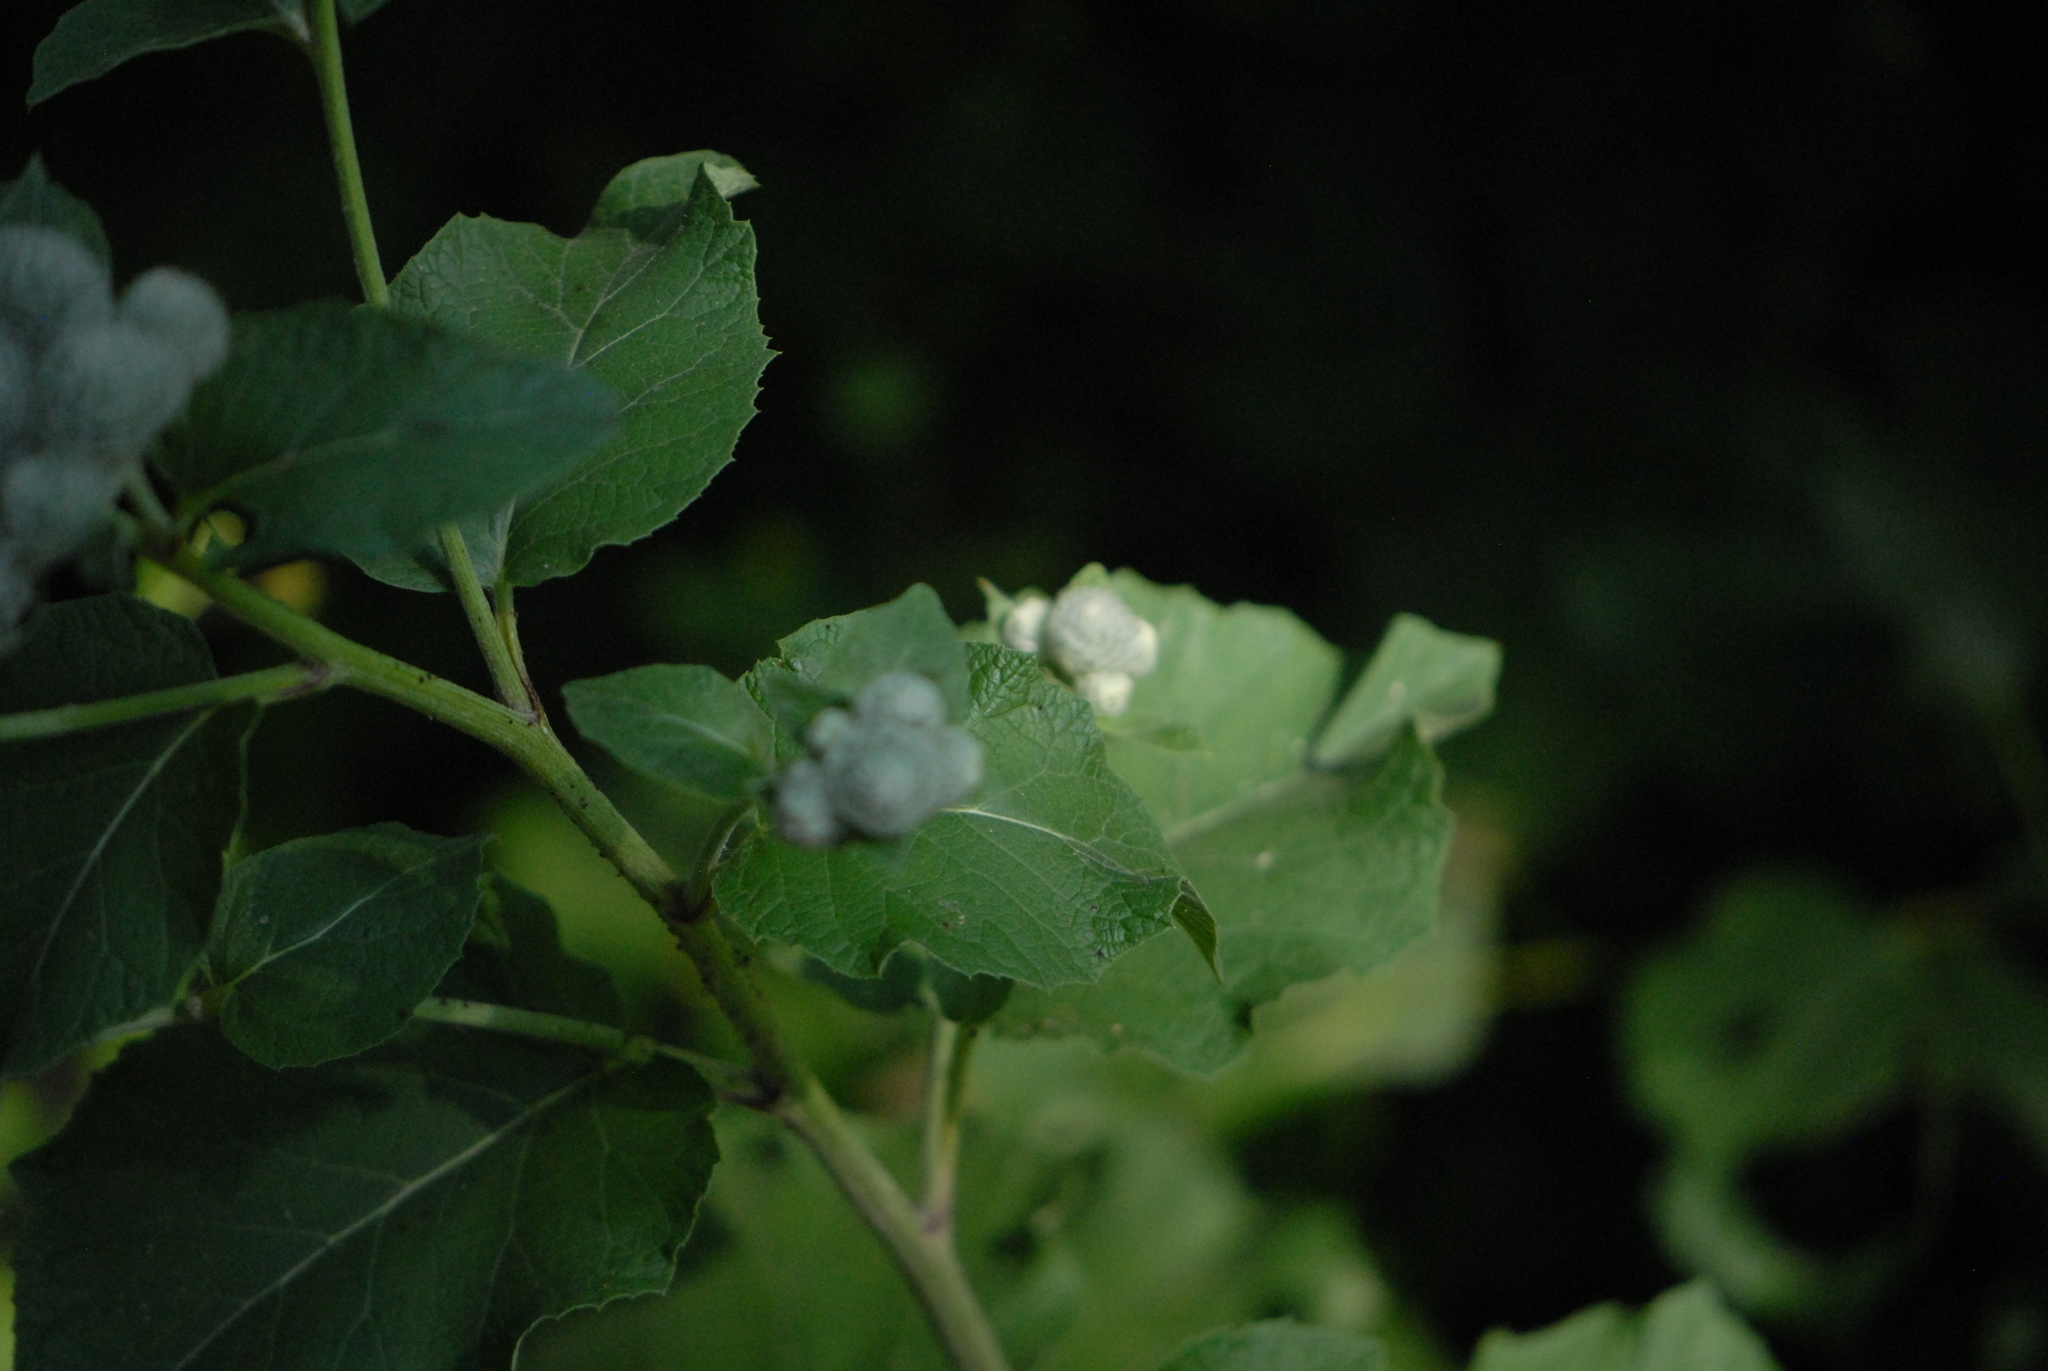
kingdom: Plantae
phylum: Tracheophyta
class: Magnoliopsida
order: Asterales
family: Asteraceae
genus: Arctium
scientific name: Arctium tomentosum
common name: Woolly burdock
